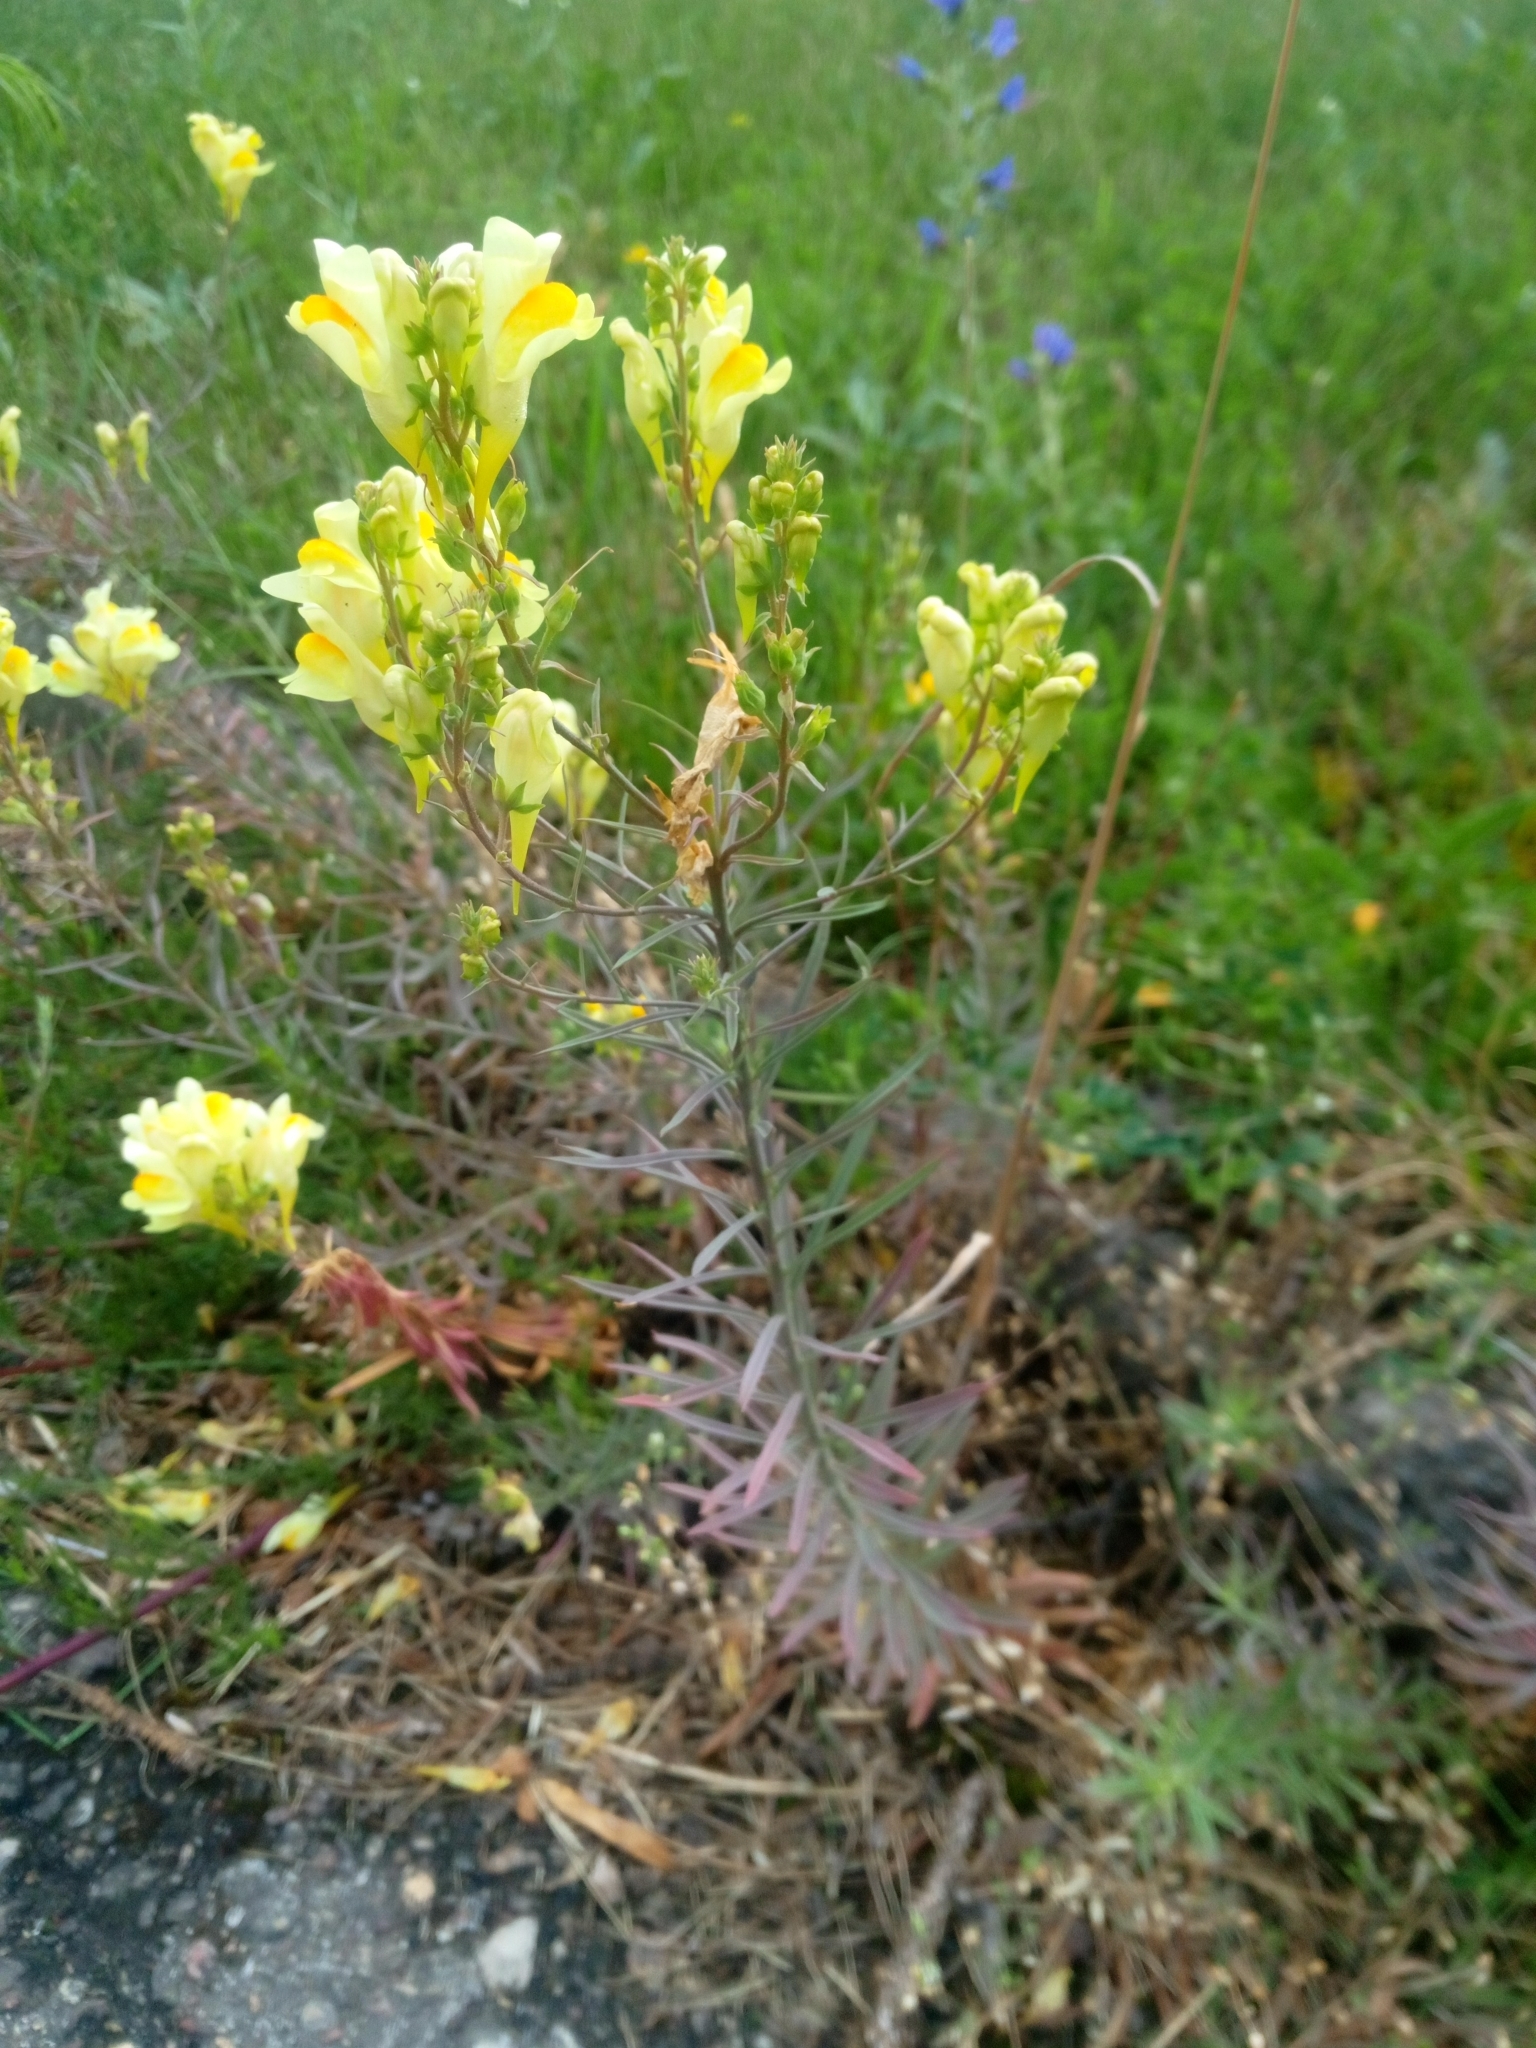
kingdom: Plantae
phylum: Tracheophyta
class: Magnoliopsida
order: Lamiales
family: Plantaginaceae
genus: Linaria
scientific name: Linaria vulgaris
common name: Butter and eggs
